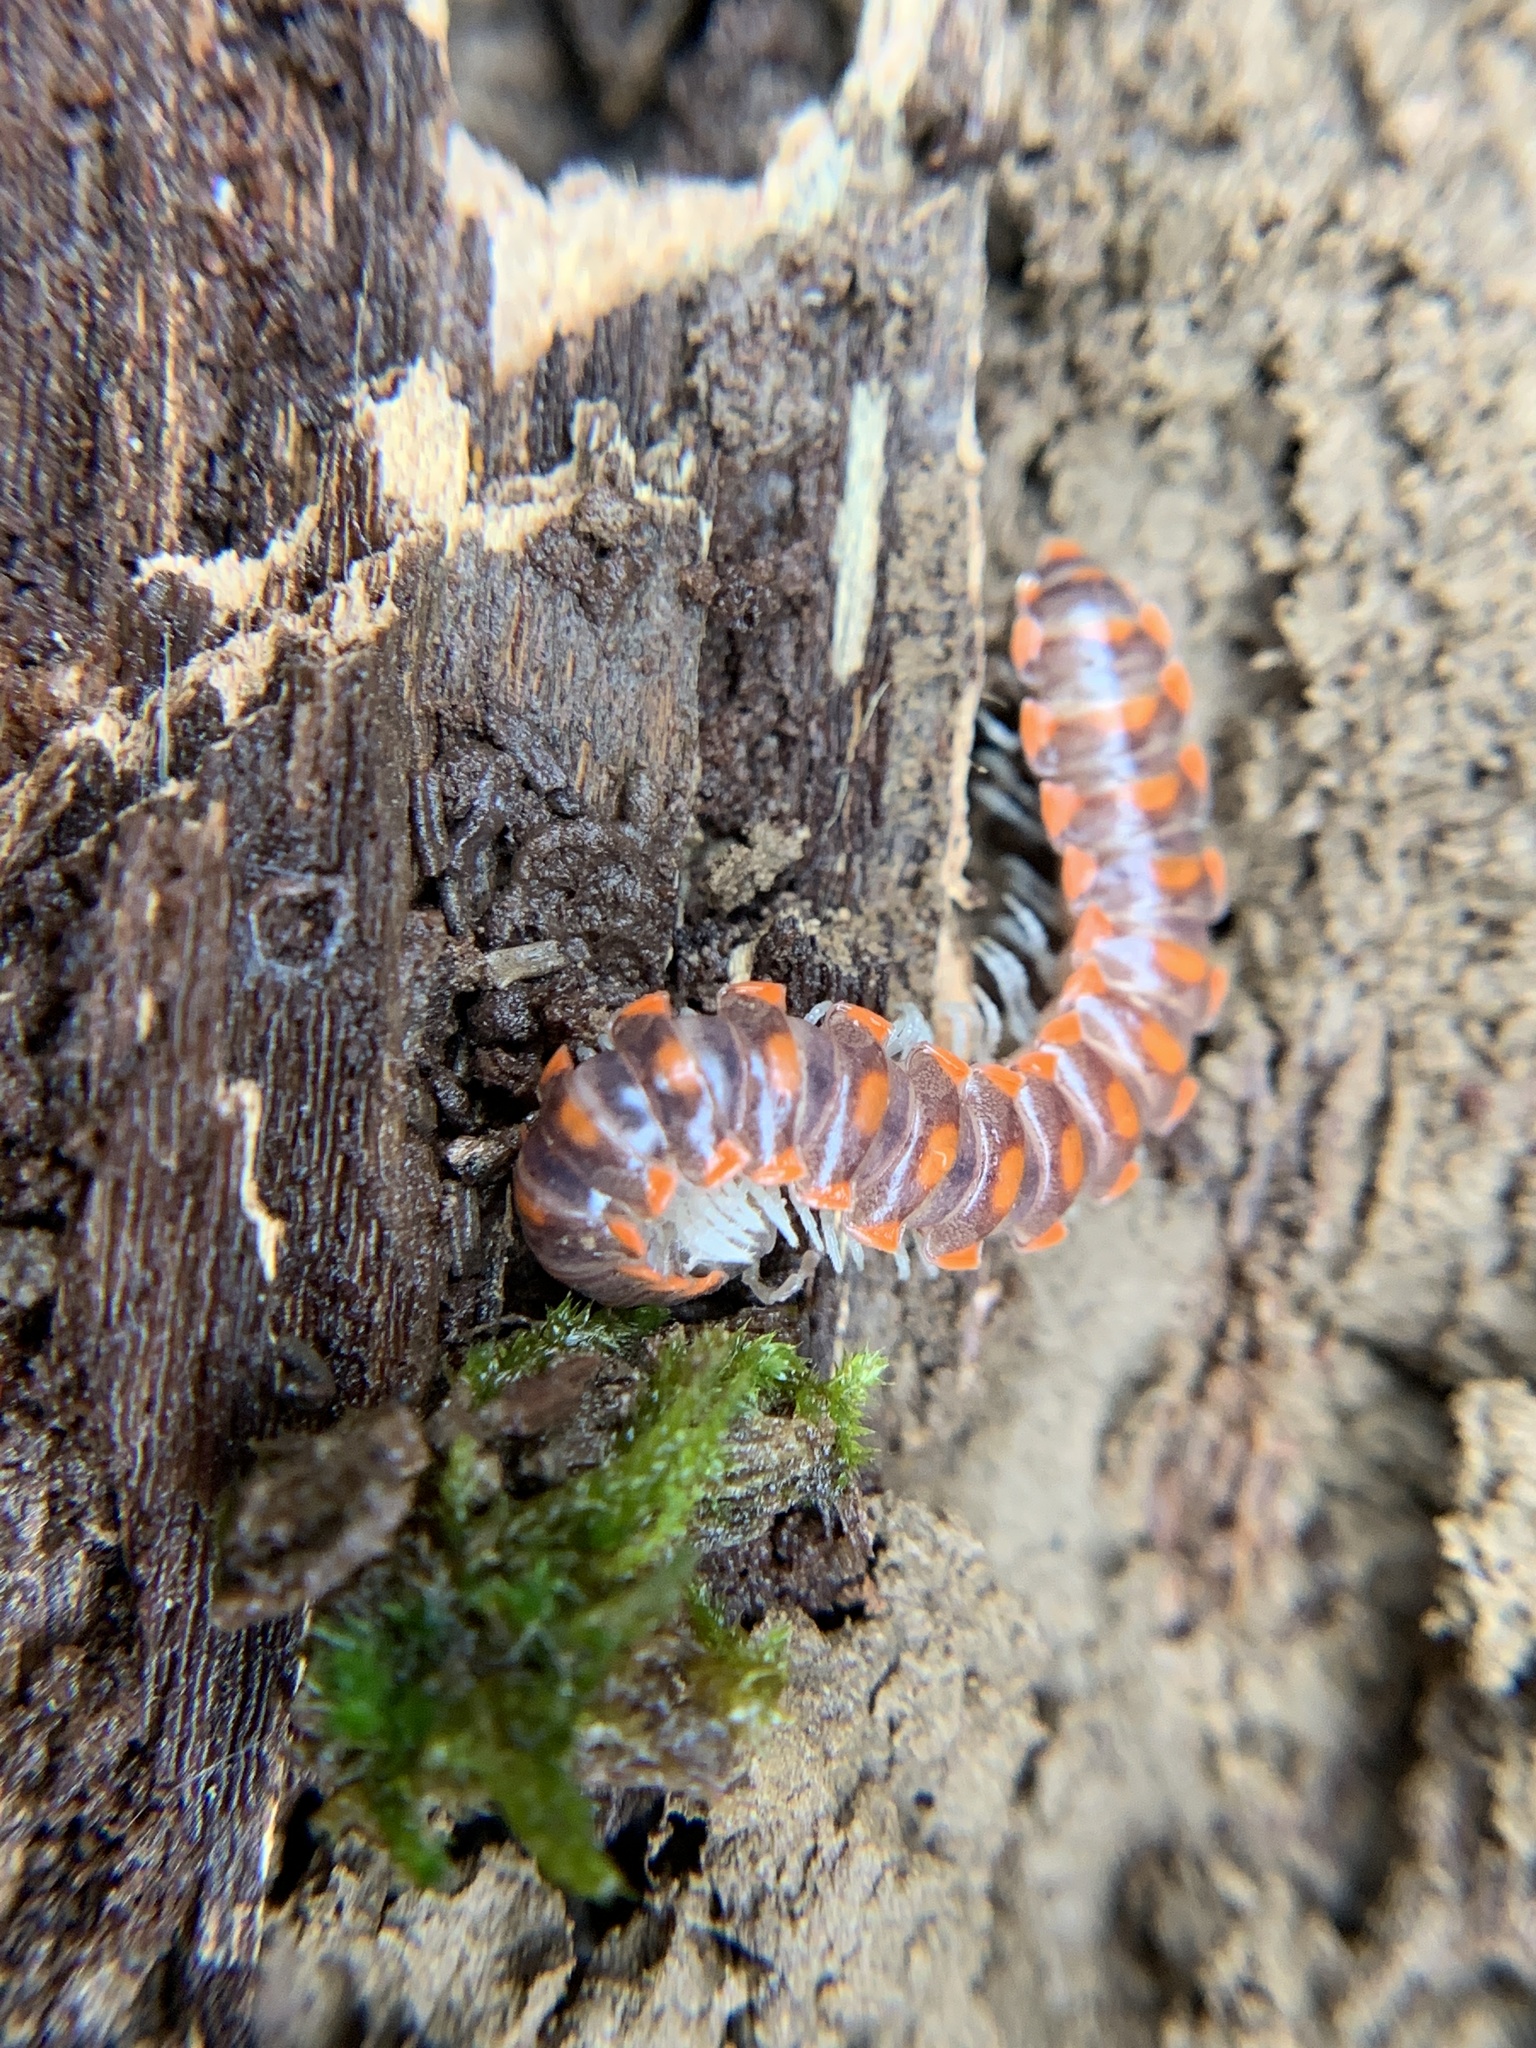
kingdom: Animalia
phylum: Arthropoda
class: Diplopoda
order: Polydesmida
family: Xystodesmidae
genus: Euryurus
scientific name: Euryurus leachii
